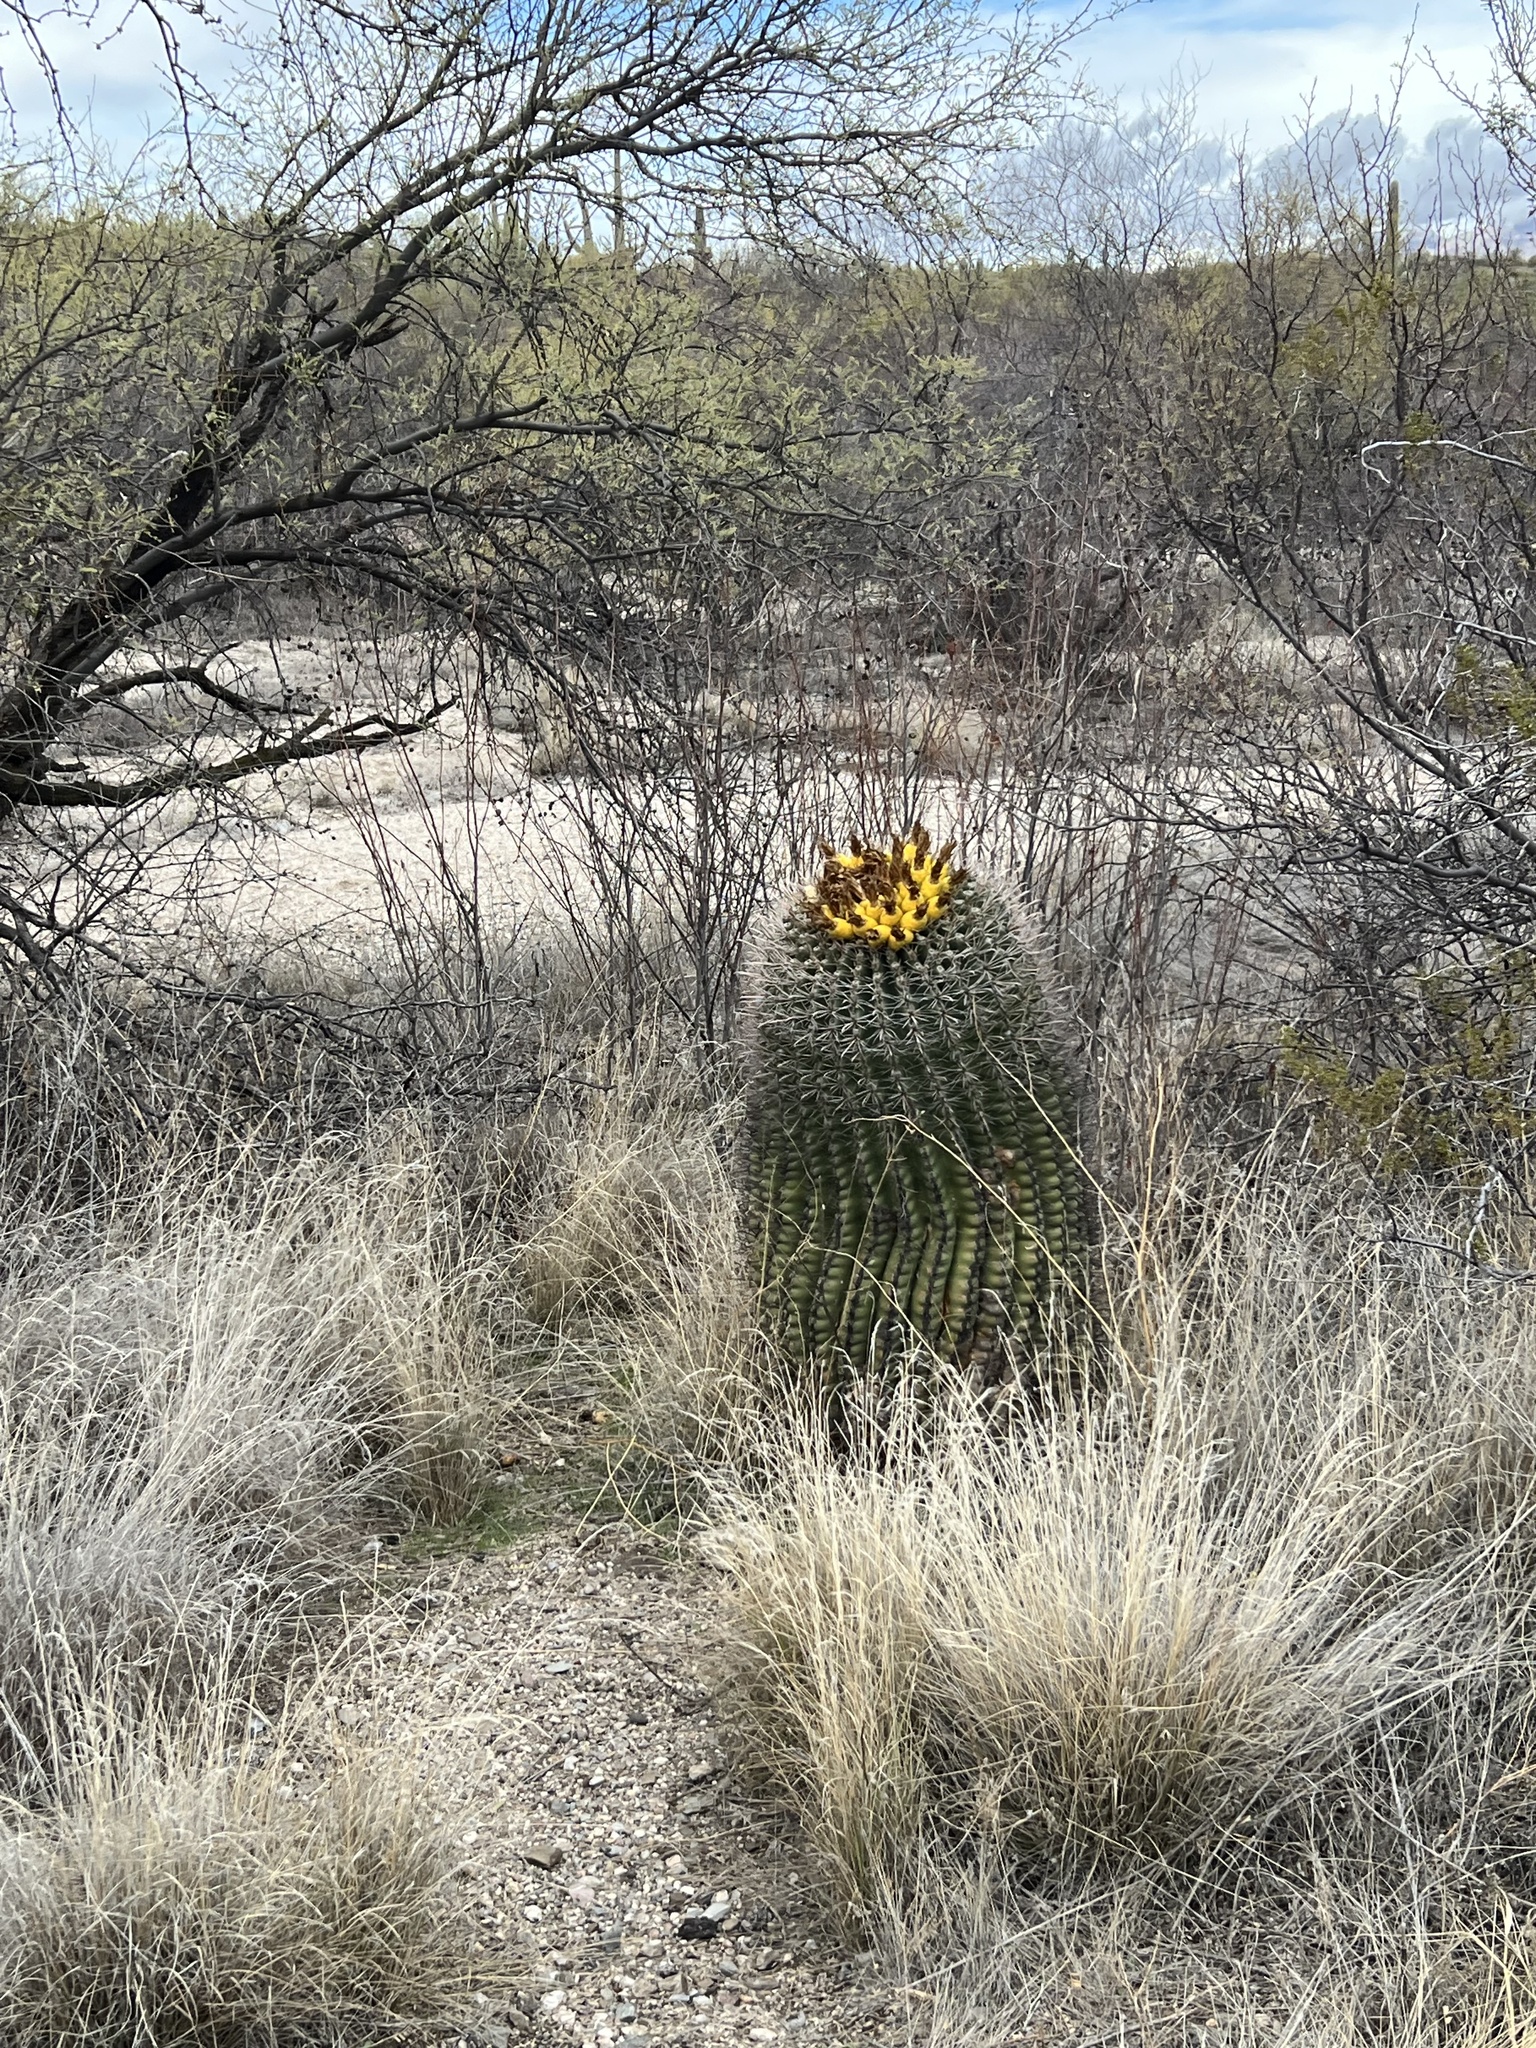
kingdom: Plantae
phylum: Tracheophyta
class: Magnoliopsida
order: Caryophyllales
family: Cactaceae
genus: Ferocactus
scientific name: Ferocactus wislizeni
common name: Candy barrel cactus
